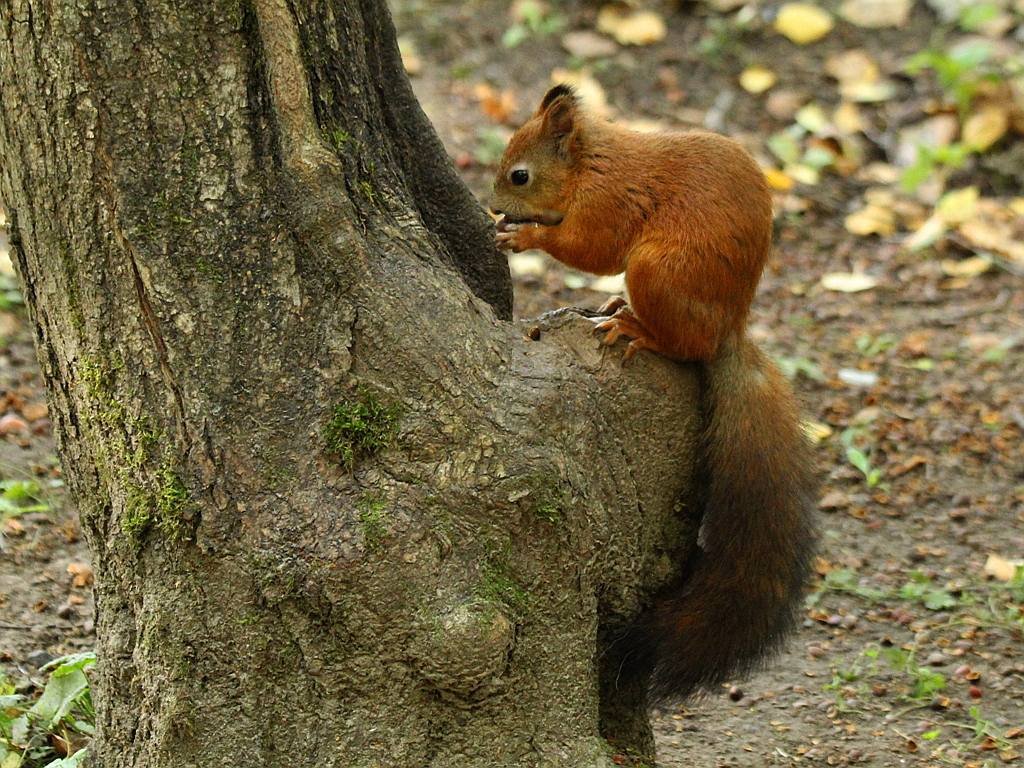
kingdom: Animalia
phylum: Chordata
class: Mammalia
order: Rodentia
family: Sciuridae
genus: Sciurus
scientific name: Sciurus vulgaris
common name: Eurasian red squirrel
